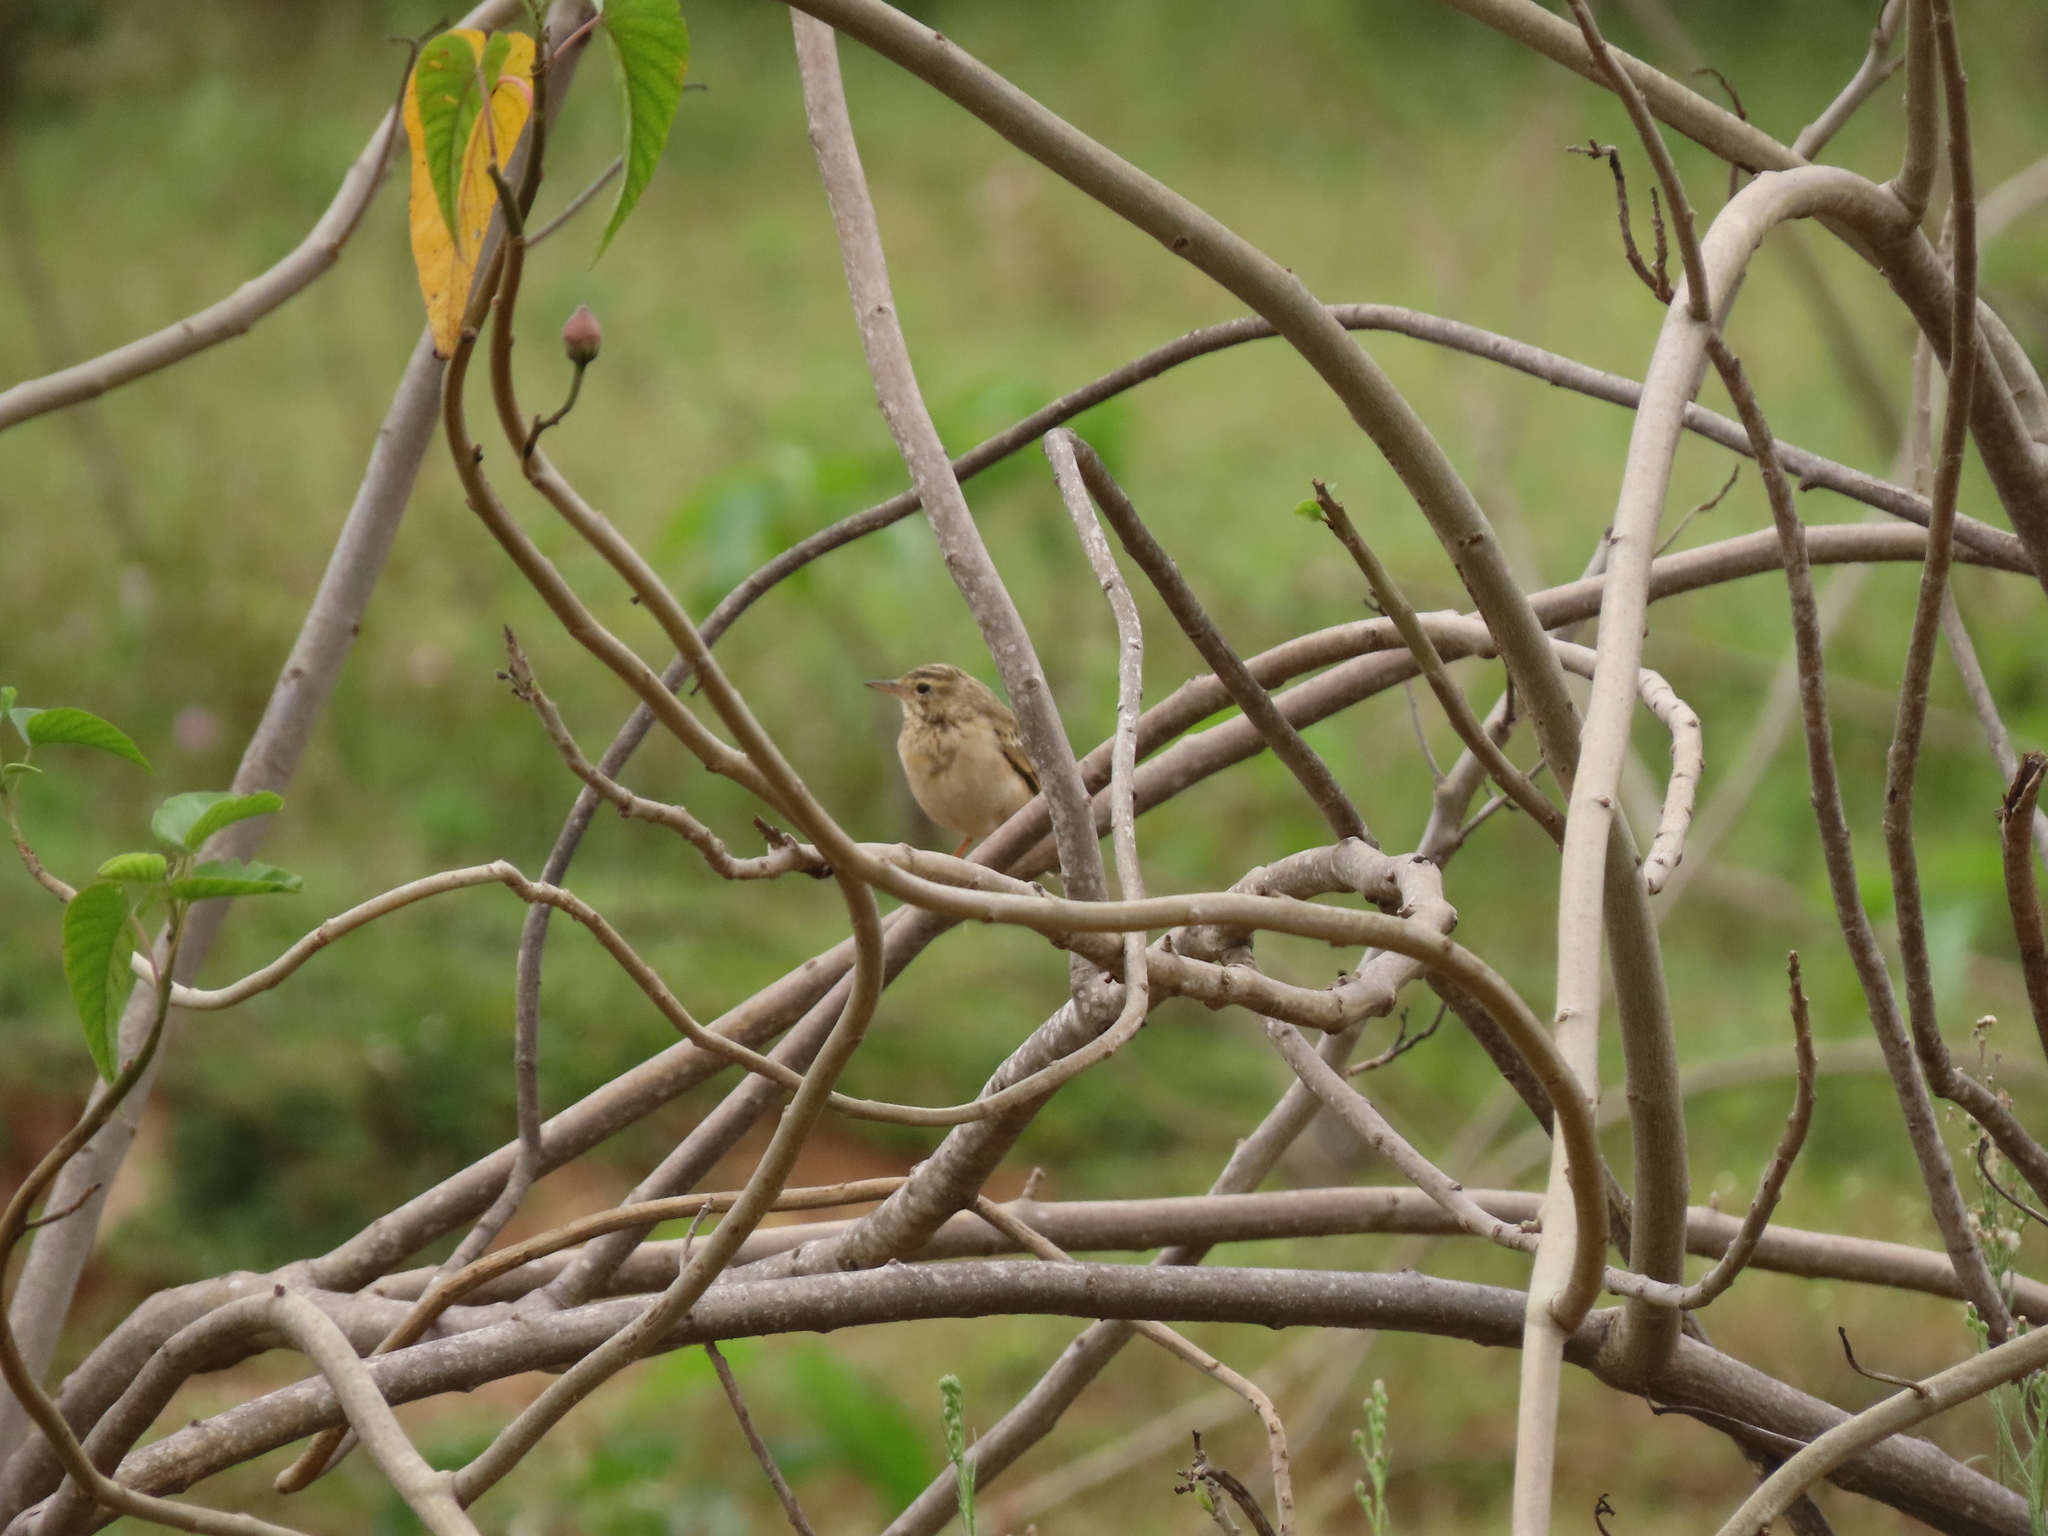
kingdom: Plantae
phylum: Tracheophyta
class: Magnoliopsida
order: Solanales
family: Convolvulaceae
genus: Ipomoea
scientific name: Ipomoea carnea
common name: Morning-glory
